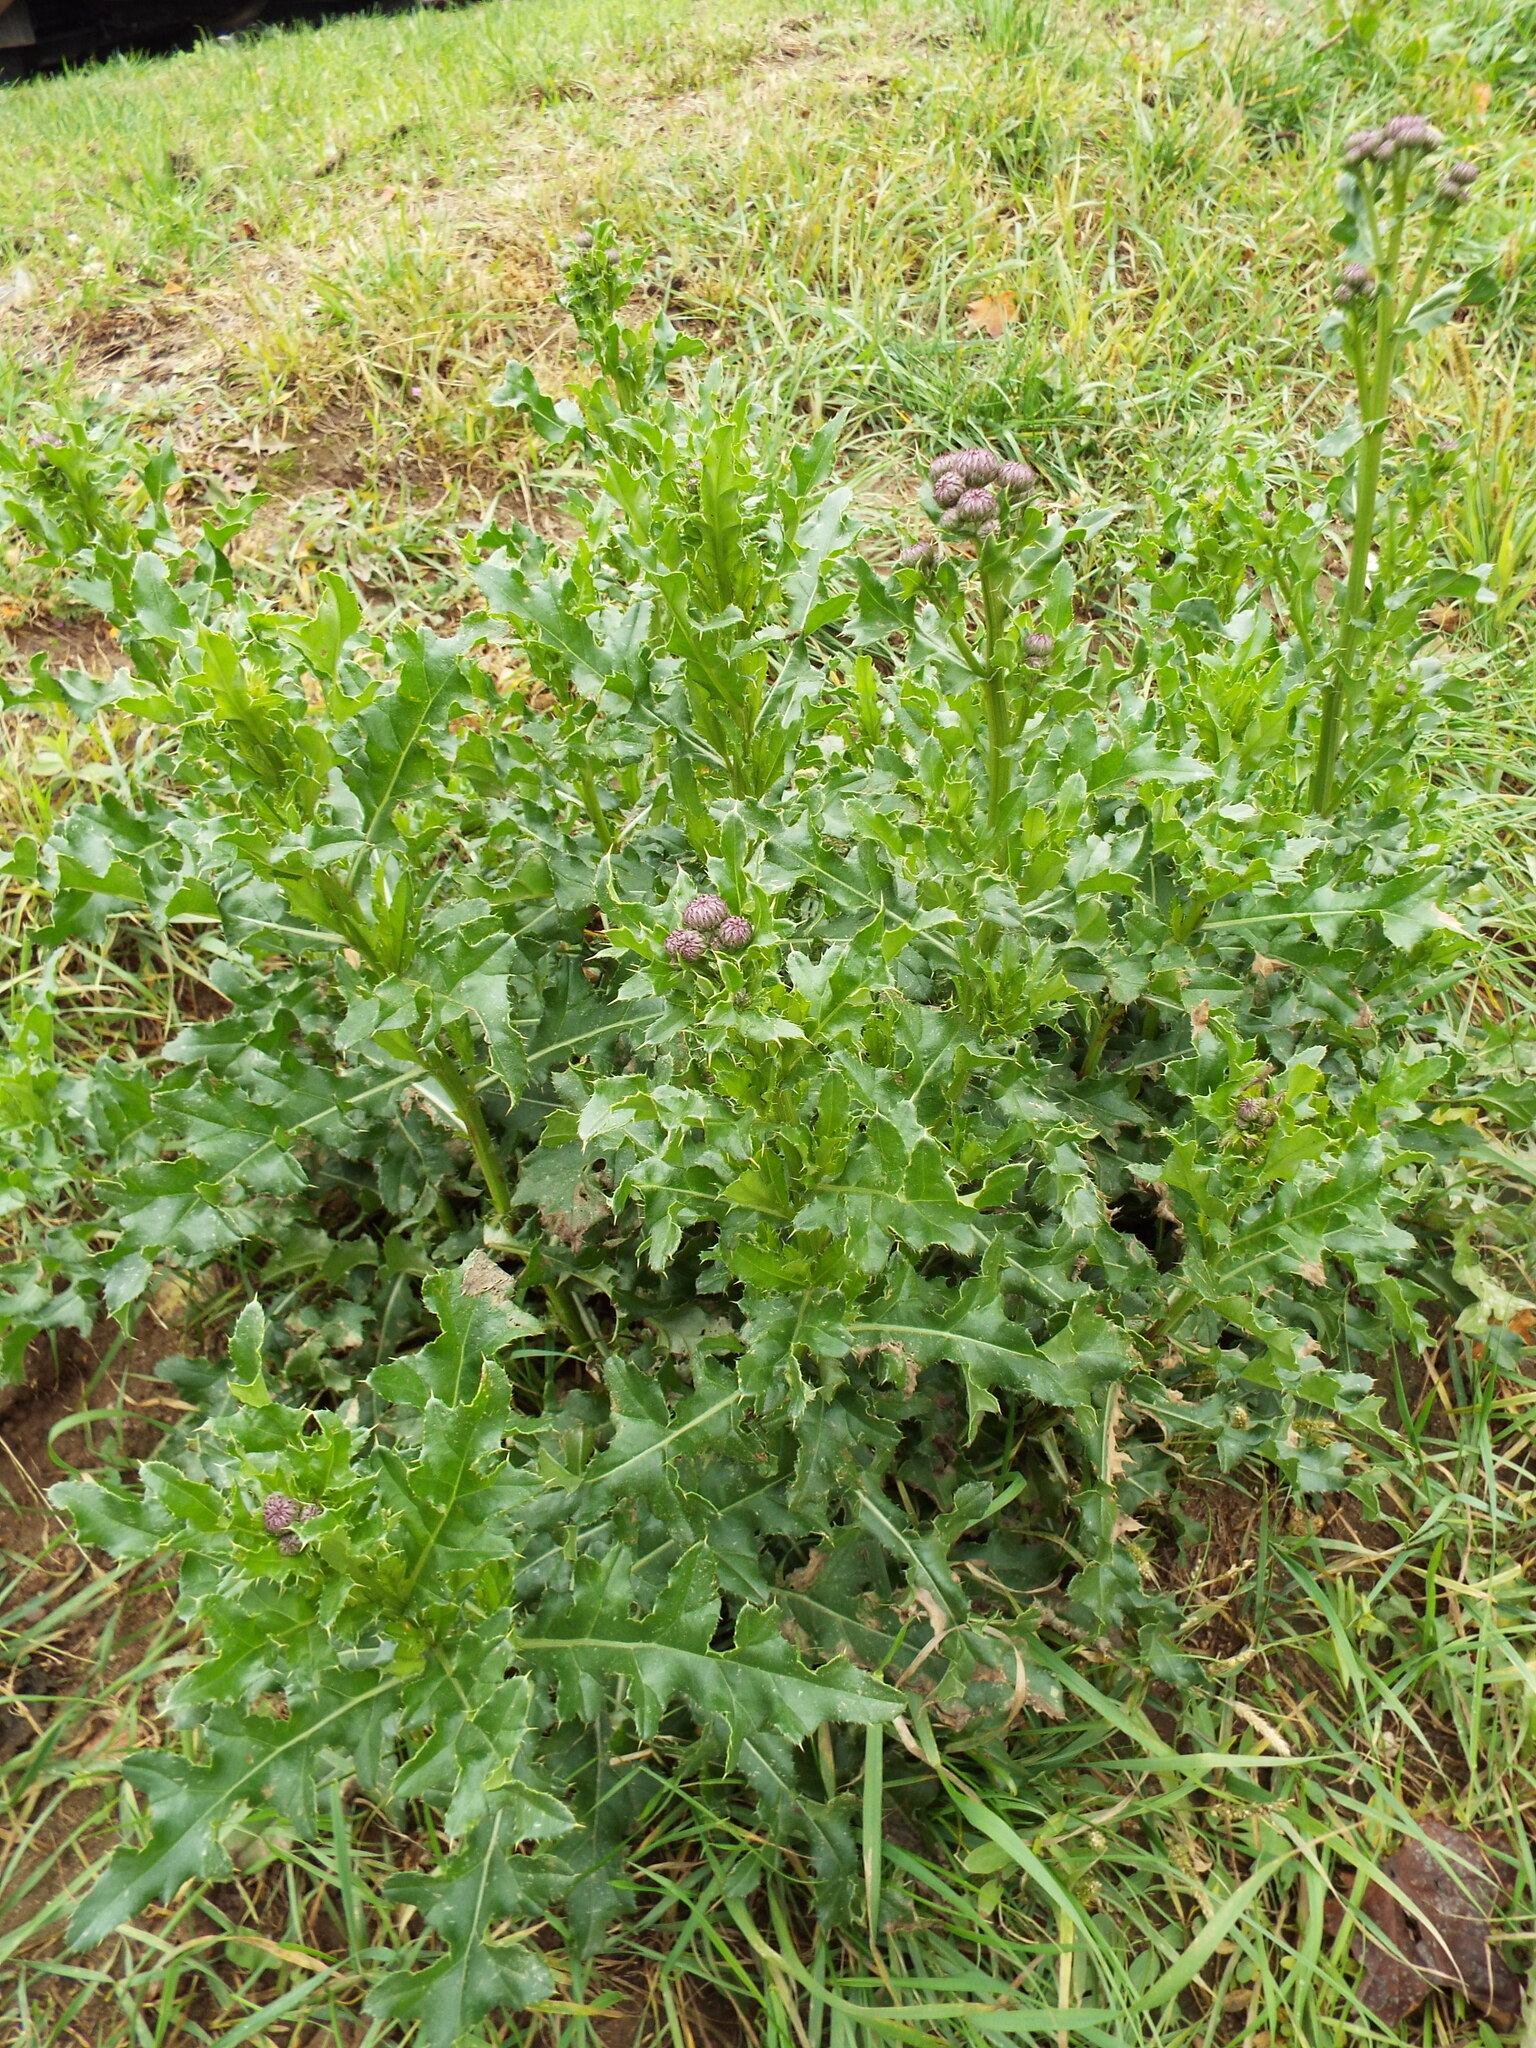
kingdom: Plantae
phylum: Tracheophyta
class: Magnoliopsida
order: Asterales
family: Asteraceae
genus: Cirsium
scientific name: Cirsium arvense
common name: Creeping thistle
